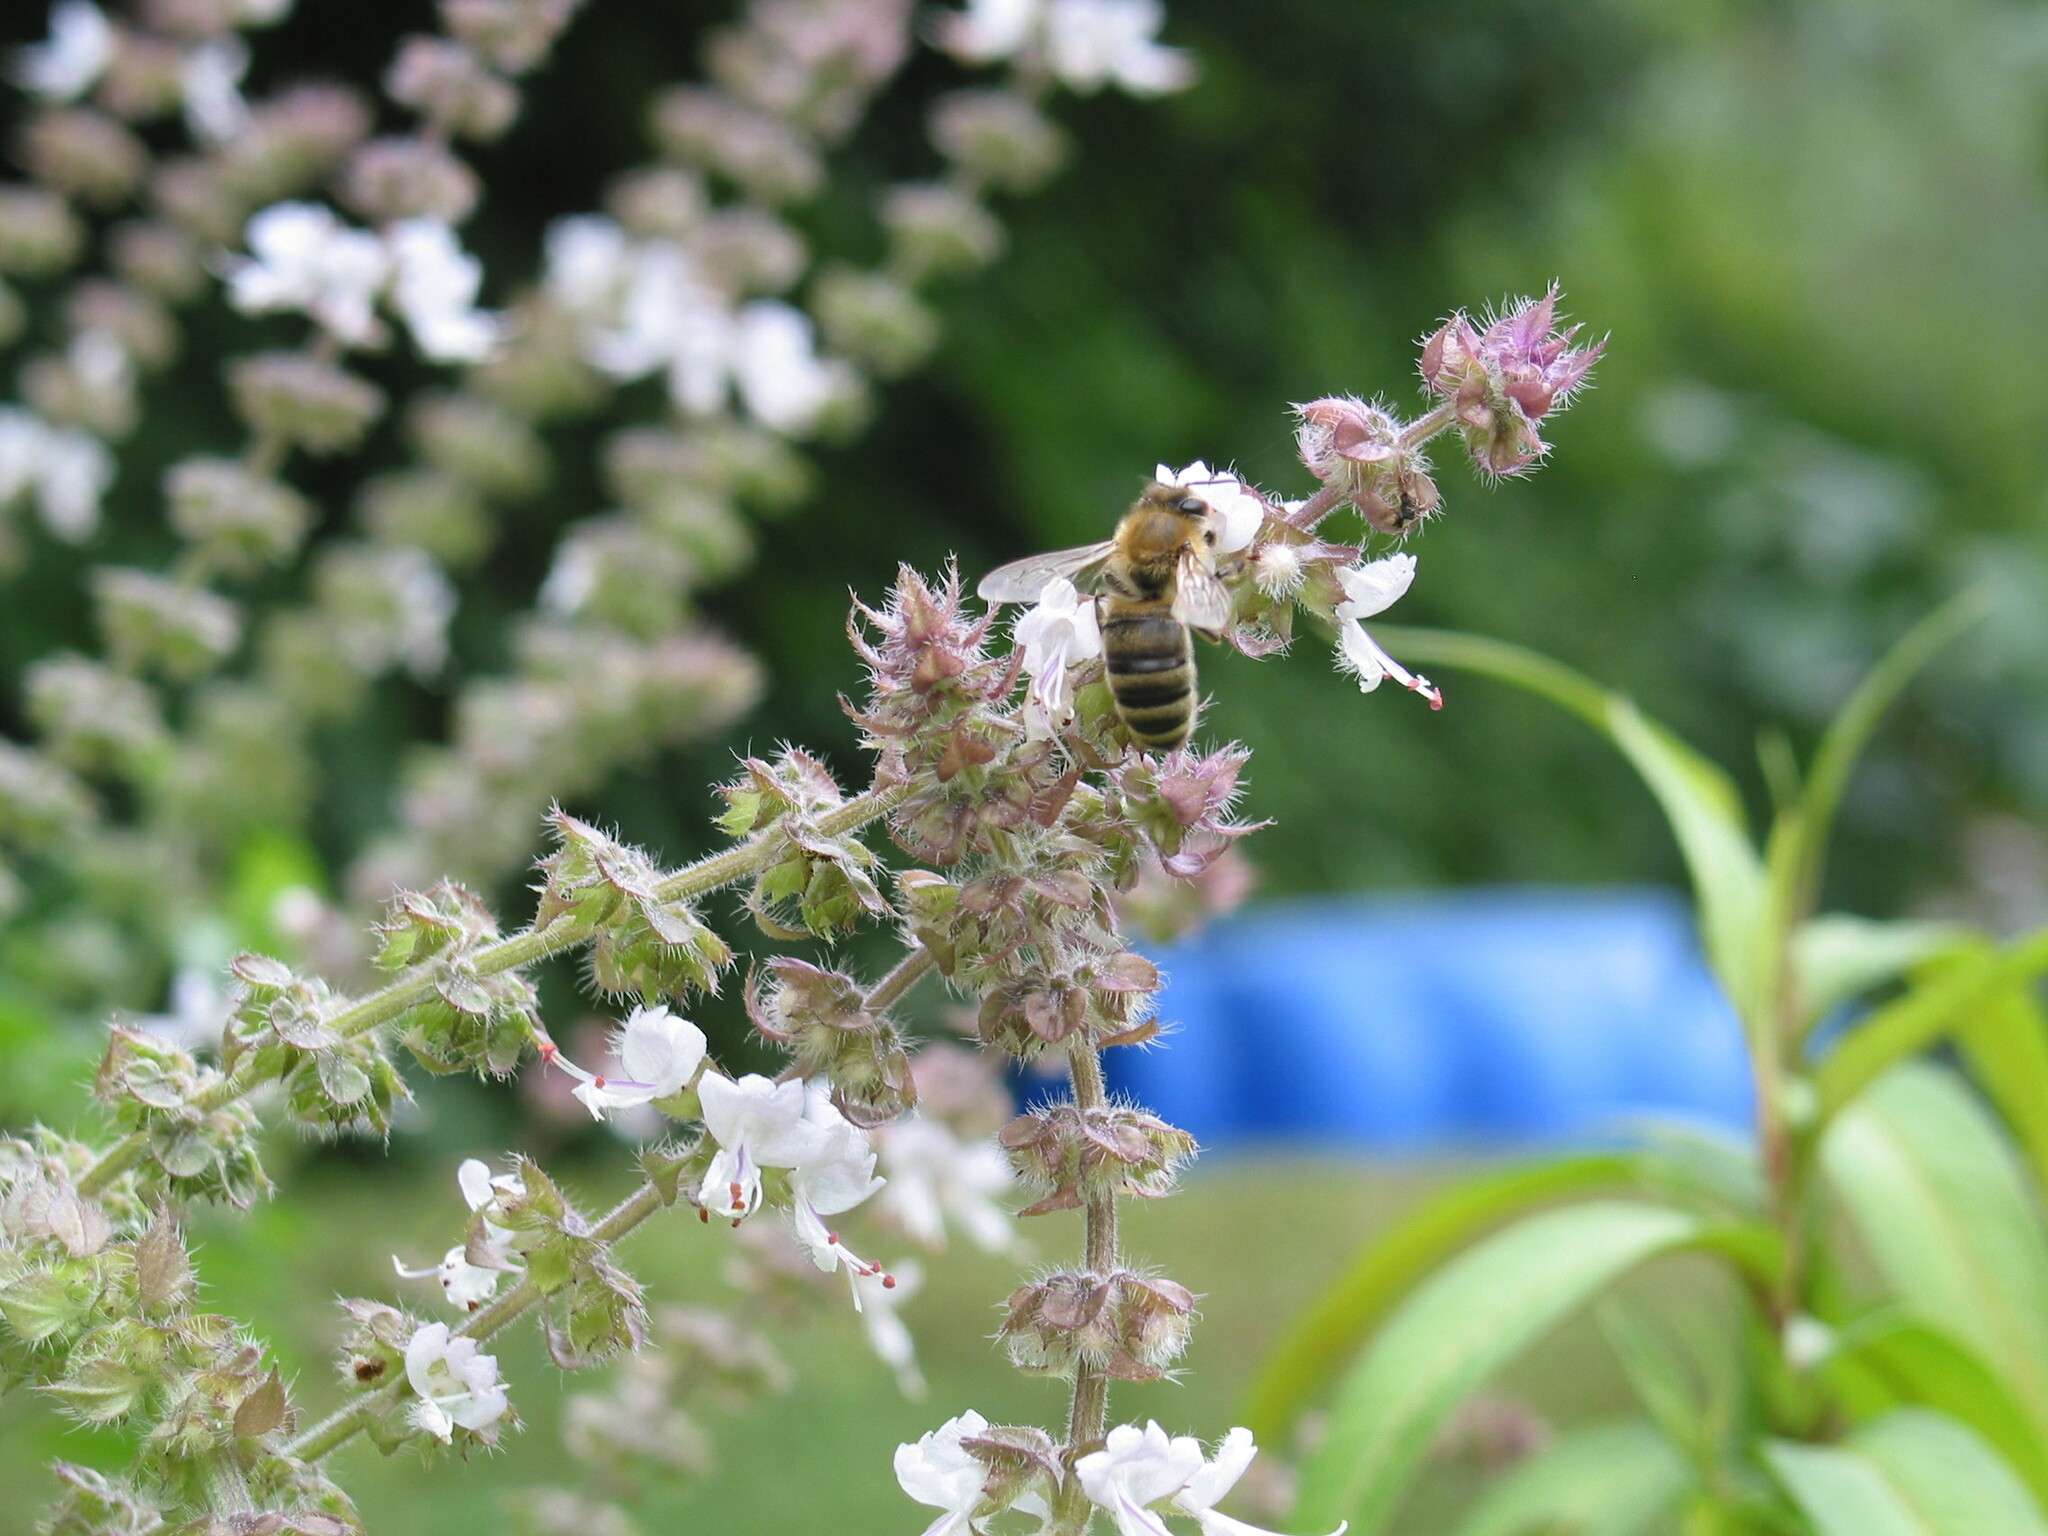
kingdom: Animalia
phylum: Arthropoda
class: Insecta
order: Hymenoptera
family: Apidae
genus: Apis
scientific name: Apis mellifera
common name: Honey bee
